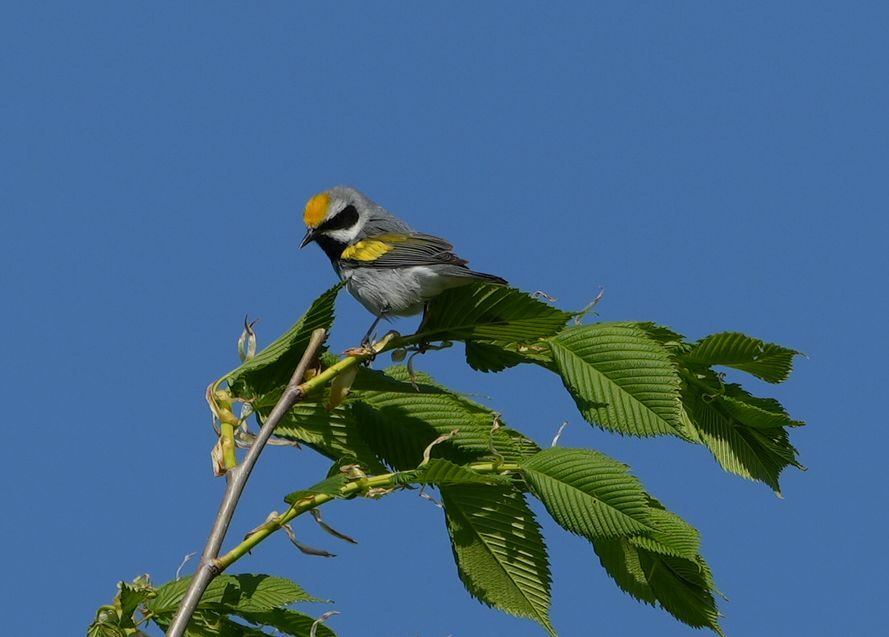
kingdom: Animalia
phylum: Chordata
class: Aves
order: Passeriformes
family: Parulidae
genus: Vermivora
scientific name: Vermivora chrysoptera
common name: Golden-winged warbler
